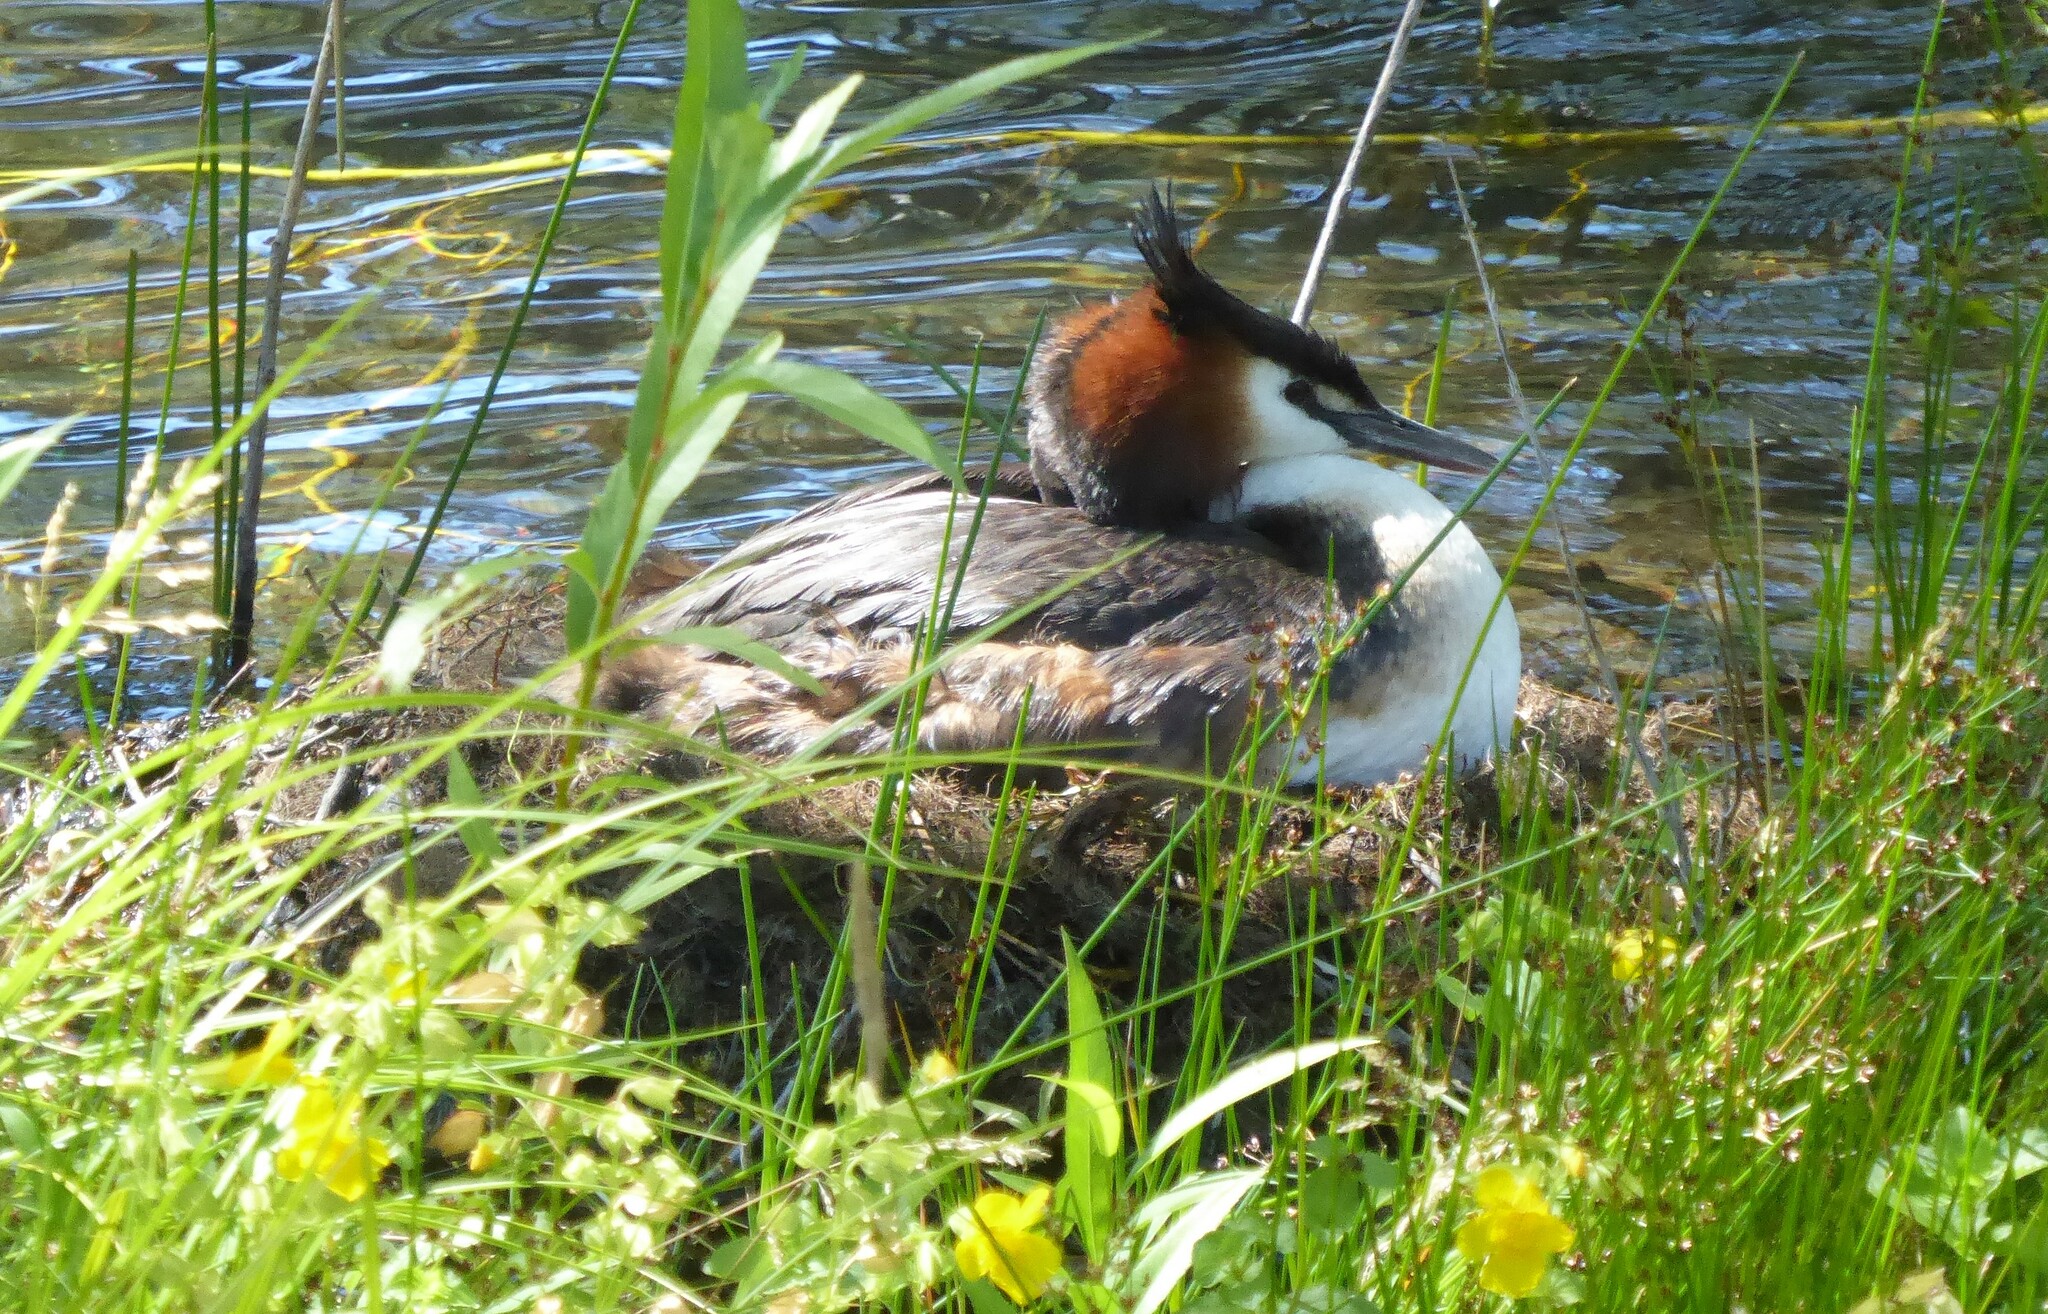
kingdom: Animalia
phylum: Chordata
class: Aves
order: Podicipediformes
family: Podicipedidae
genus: Podiceps
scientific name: Podiceps cristatus
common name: Great crested grebe
